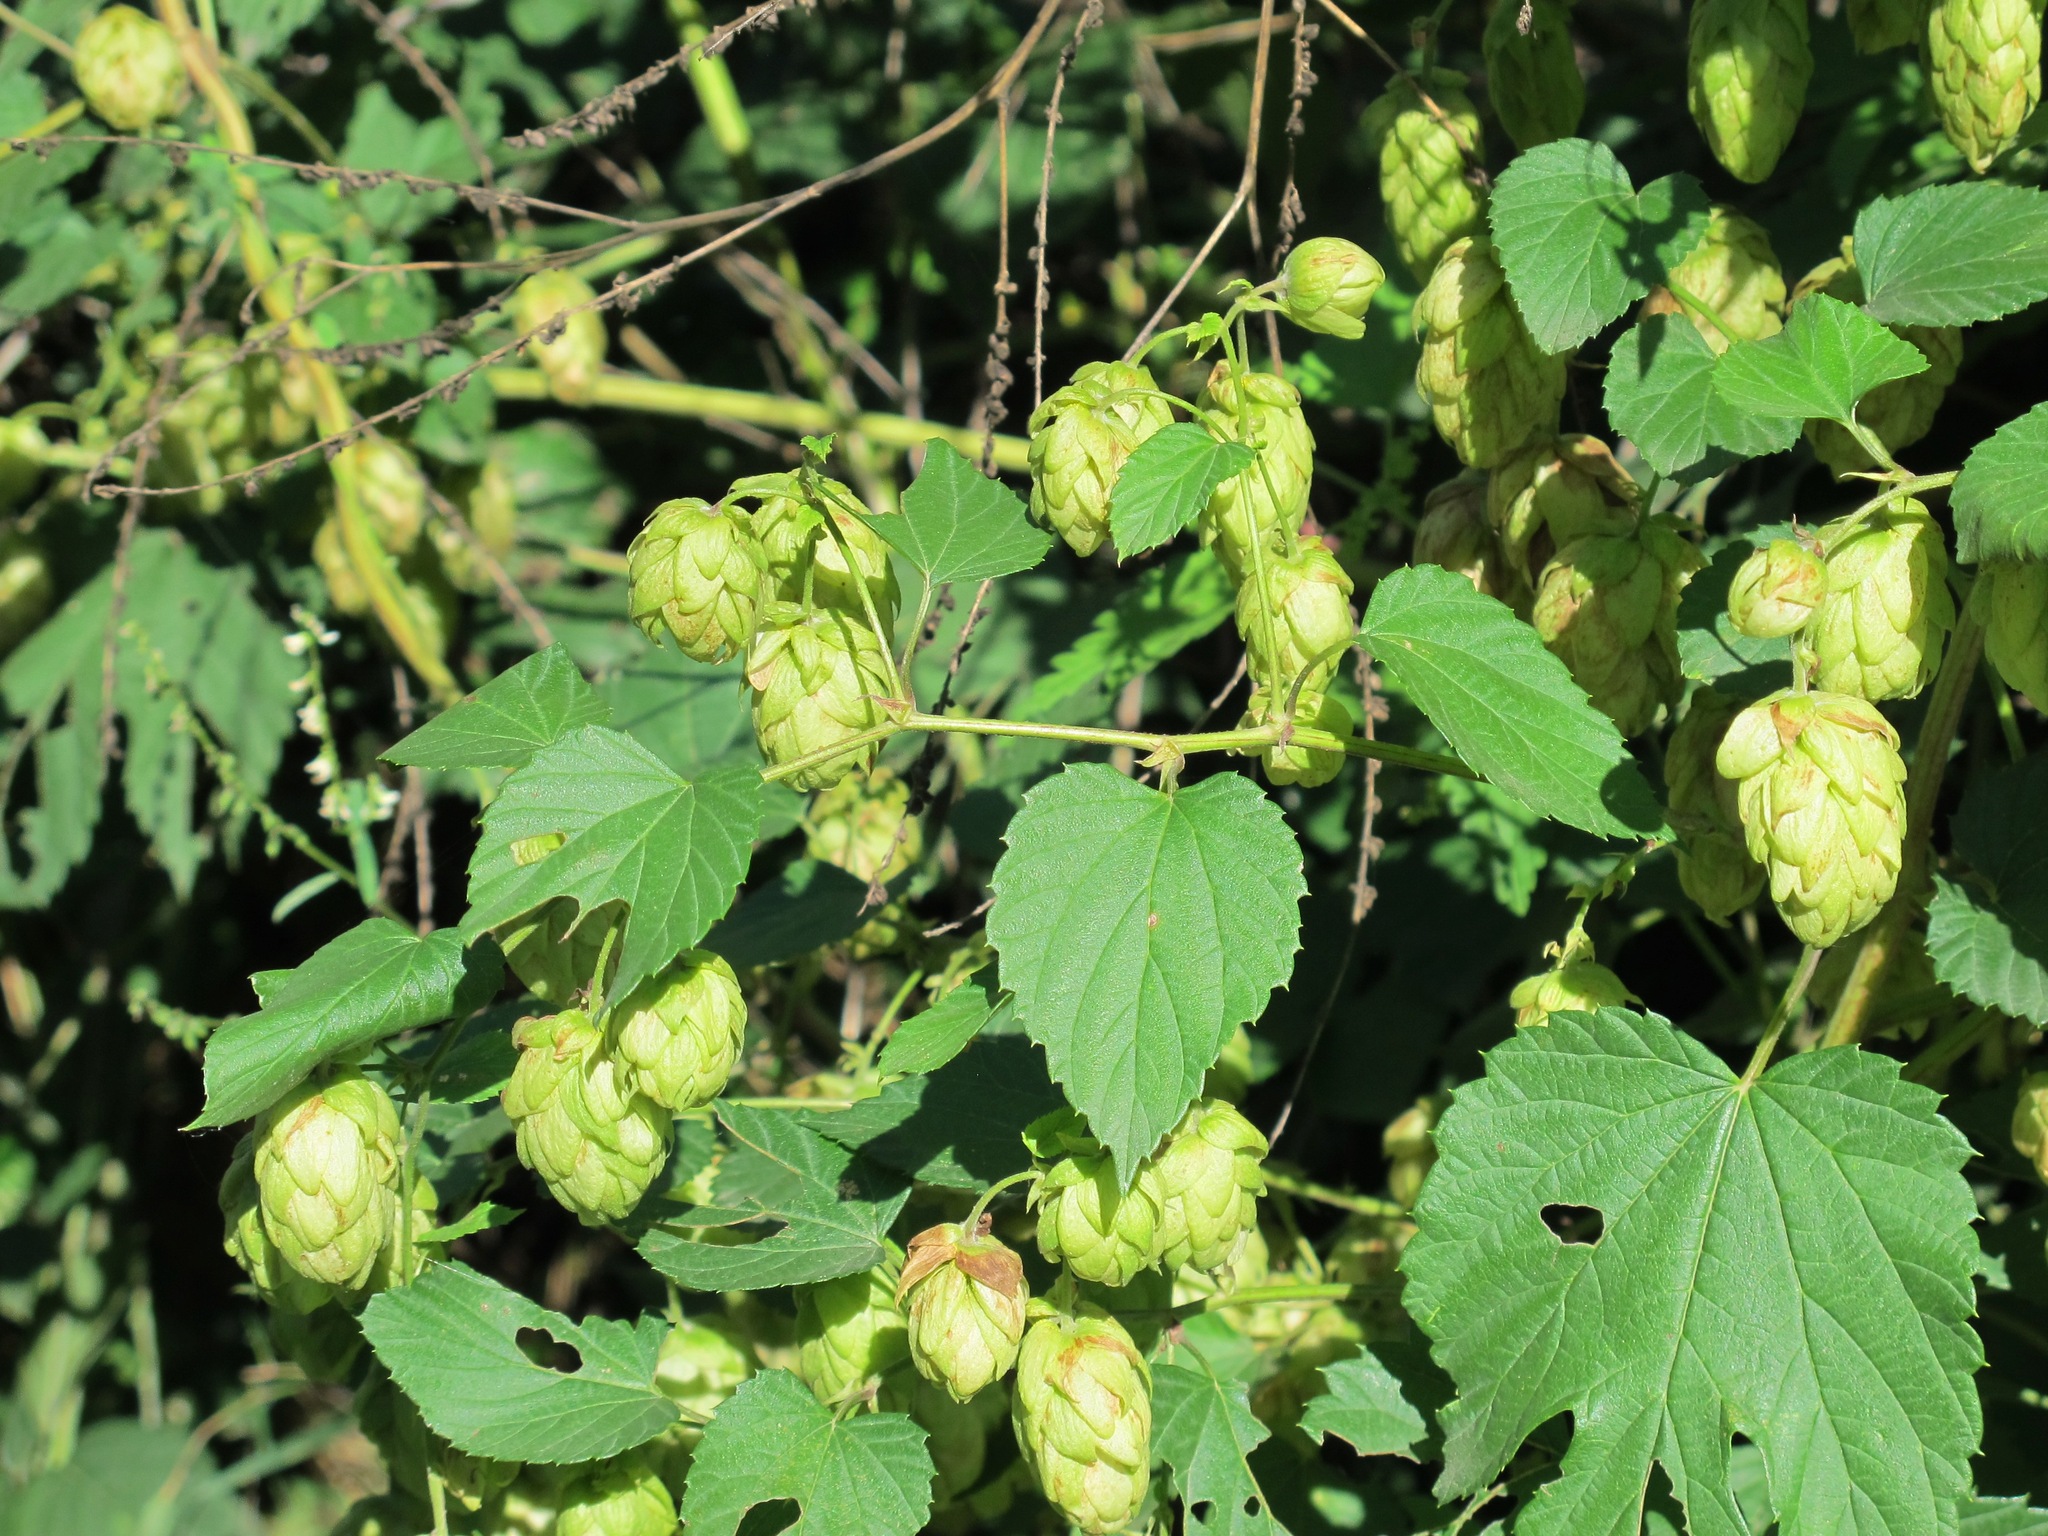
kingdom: Plantae
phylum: Tracheophyta
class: Magnoliopsida
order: Rosales
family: Cannabaceae
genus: Humulus
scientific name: Humulus lupulus
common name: Hop
